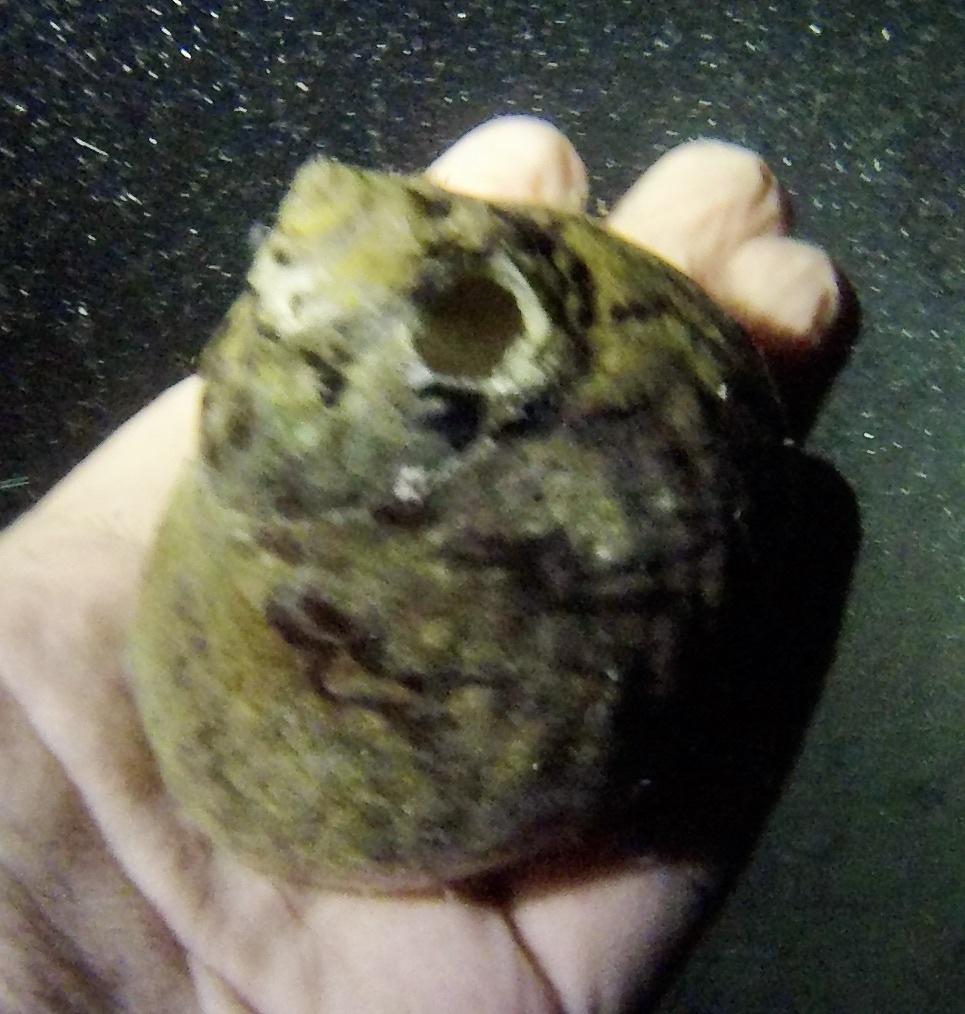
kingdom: Animalia
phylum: Mollusca
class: Gastropoda
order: Trochida
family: Tegulidae
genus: Cittarium
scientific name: Cittarium pica
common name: West indian topshell
